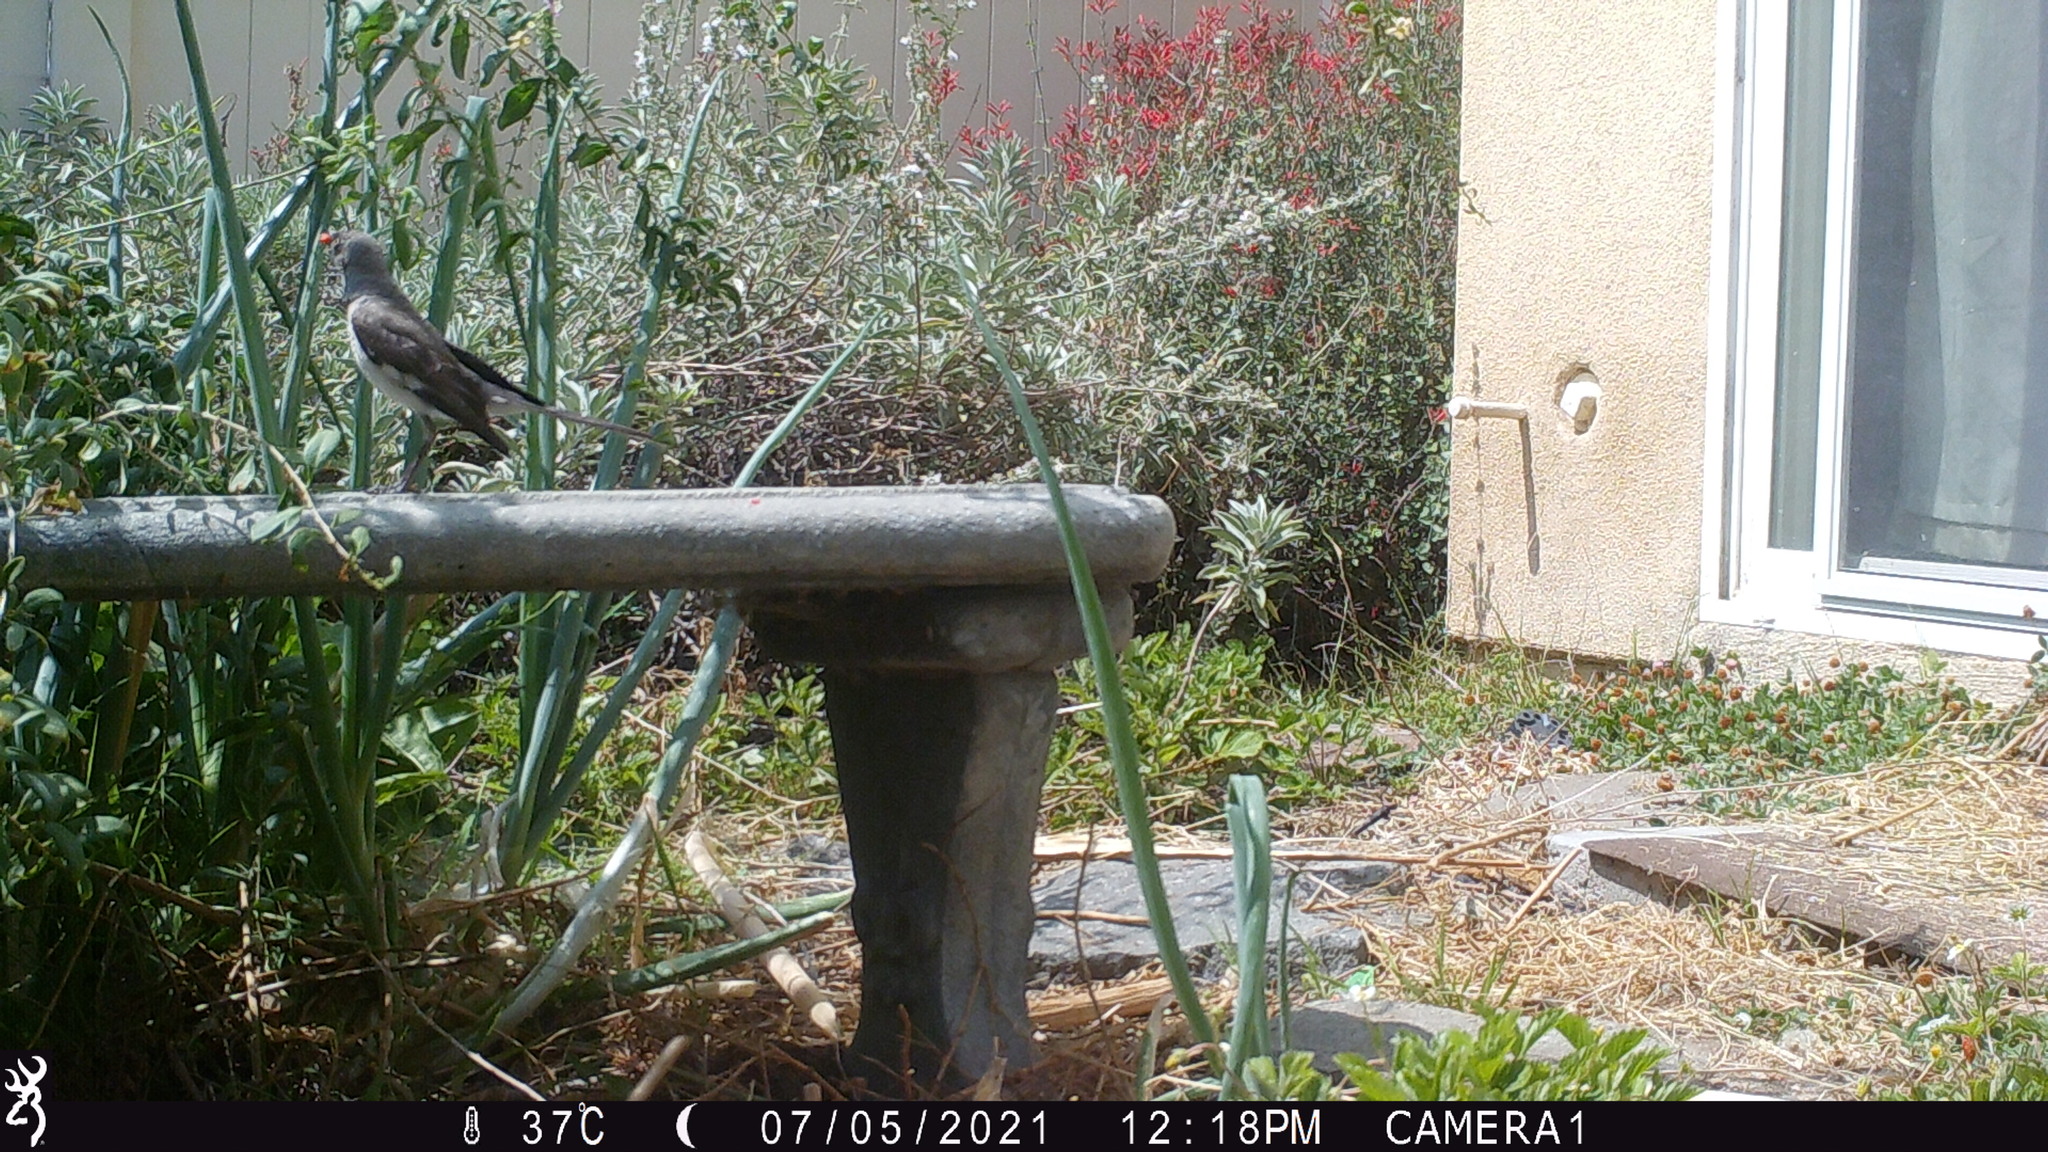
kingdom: Animalia
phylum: Chordata
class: Aves
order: Passeriformes
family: Mimidae
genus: Mimus
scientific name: Mimus polyglottos
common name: Northern mockingbird
